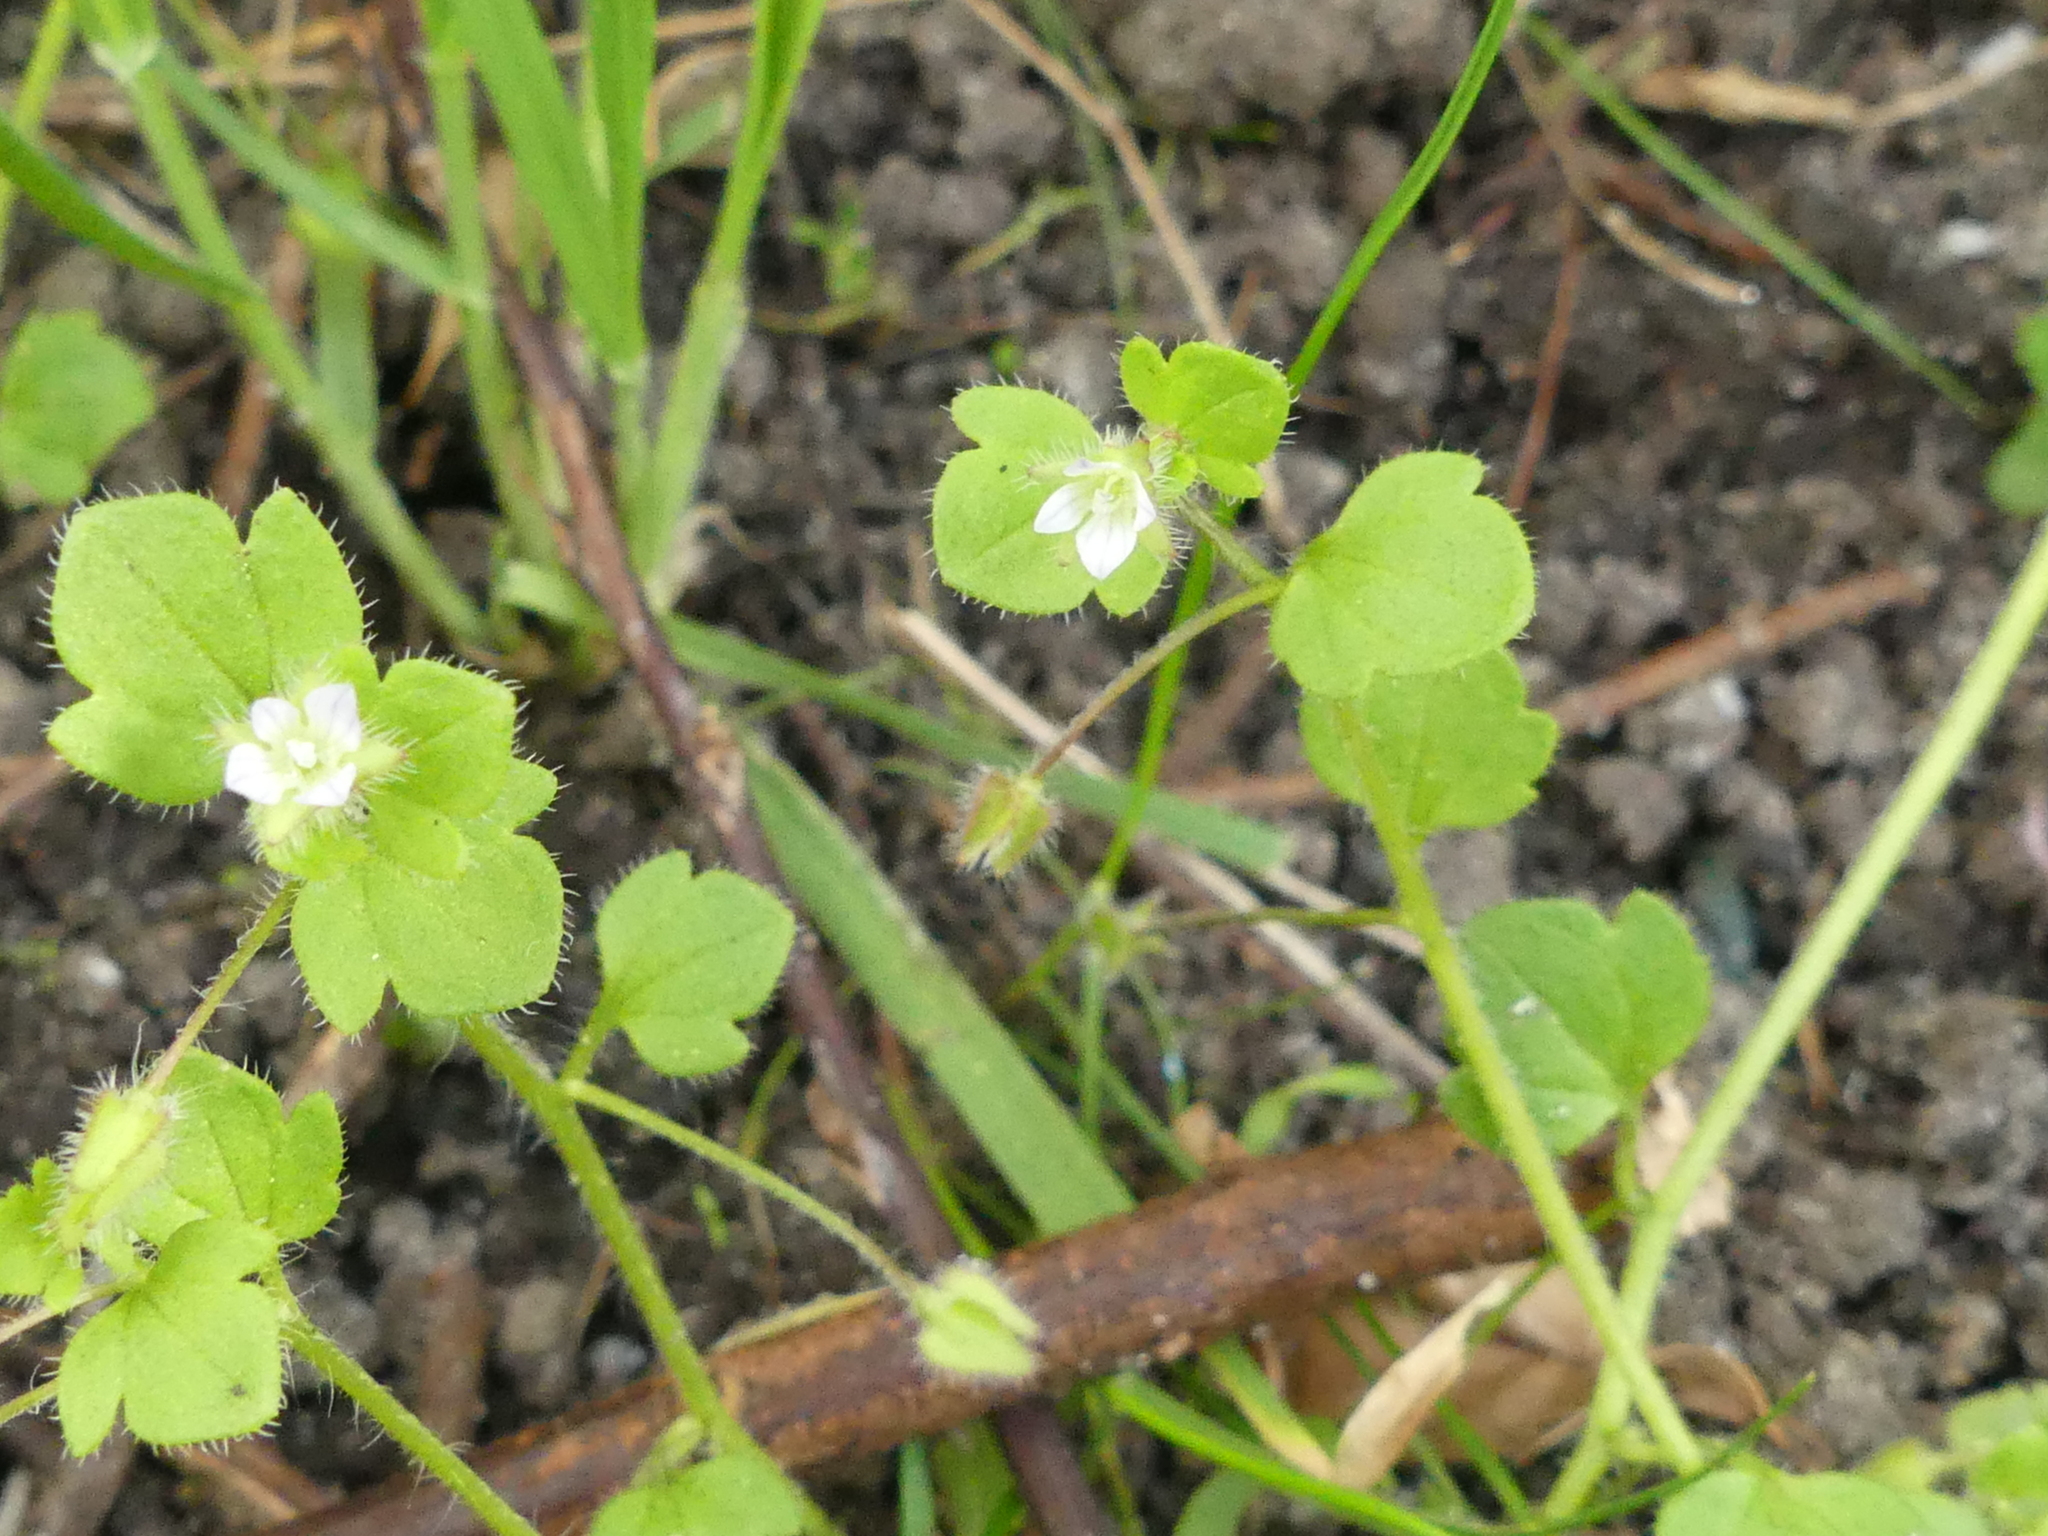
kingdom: Plantae
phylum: Tracheophyta
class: Magnoliopsida
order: Lamiales
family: Plantaginaceae
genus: Veronica
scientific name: Veronica sublobata
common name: False ivy-leaved speedwell
